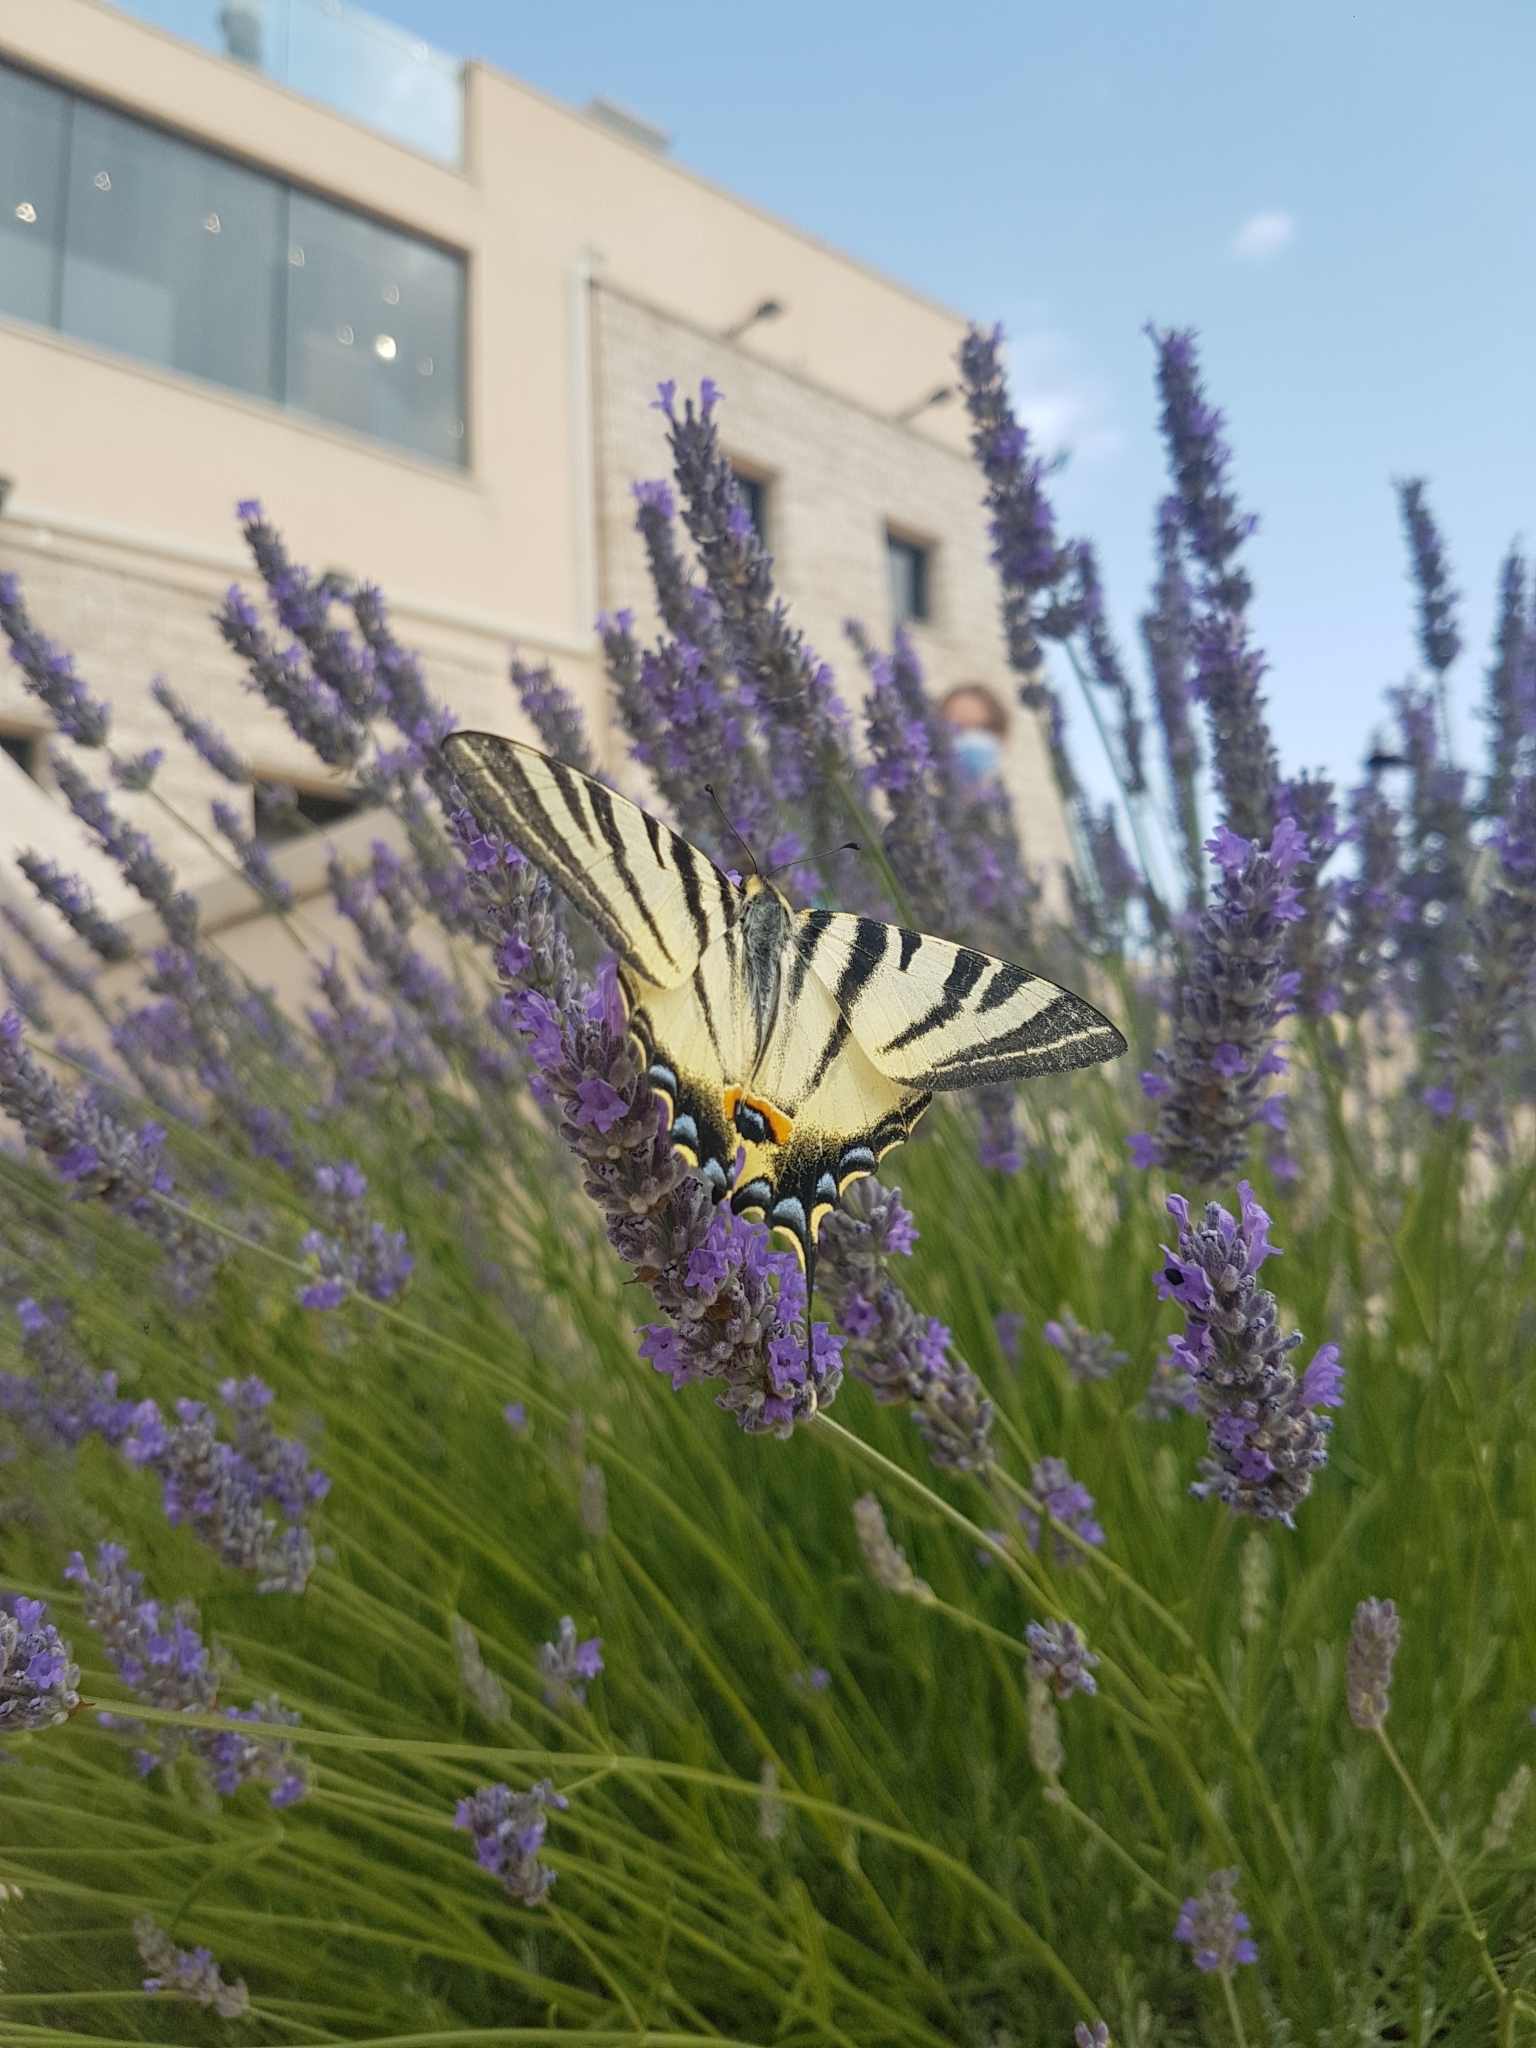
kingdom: Animalia
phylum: Arthropoda
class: Insecta
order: Lepidoptera
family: Papilionidae
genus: Iphiclides
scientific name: Iphiclides podalirius
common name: Scarce swallowtail
